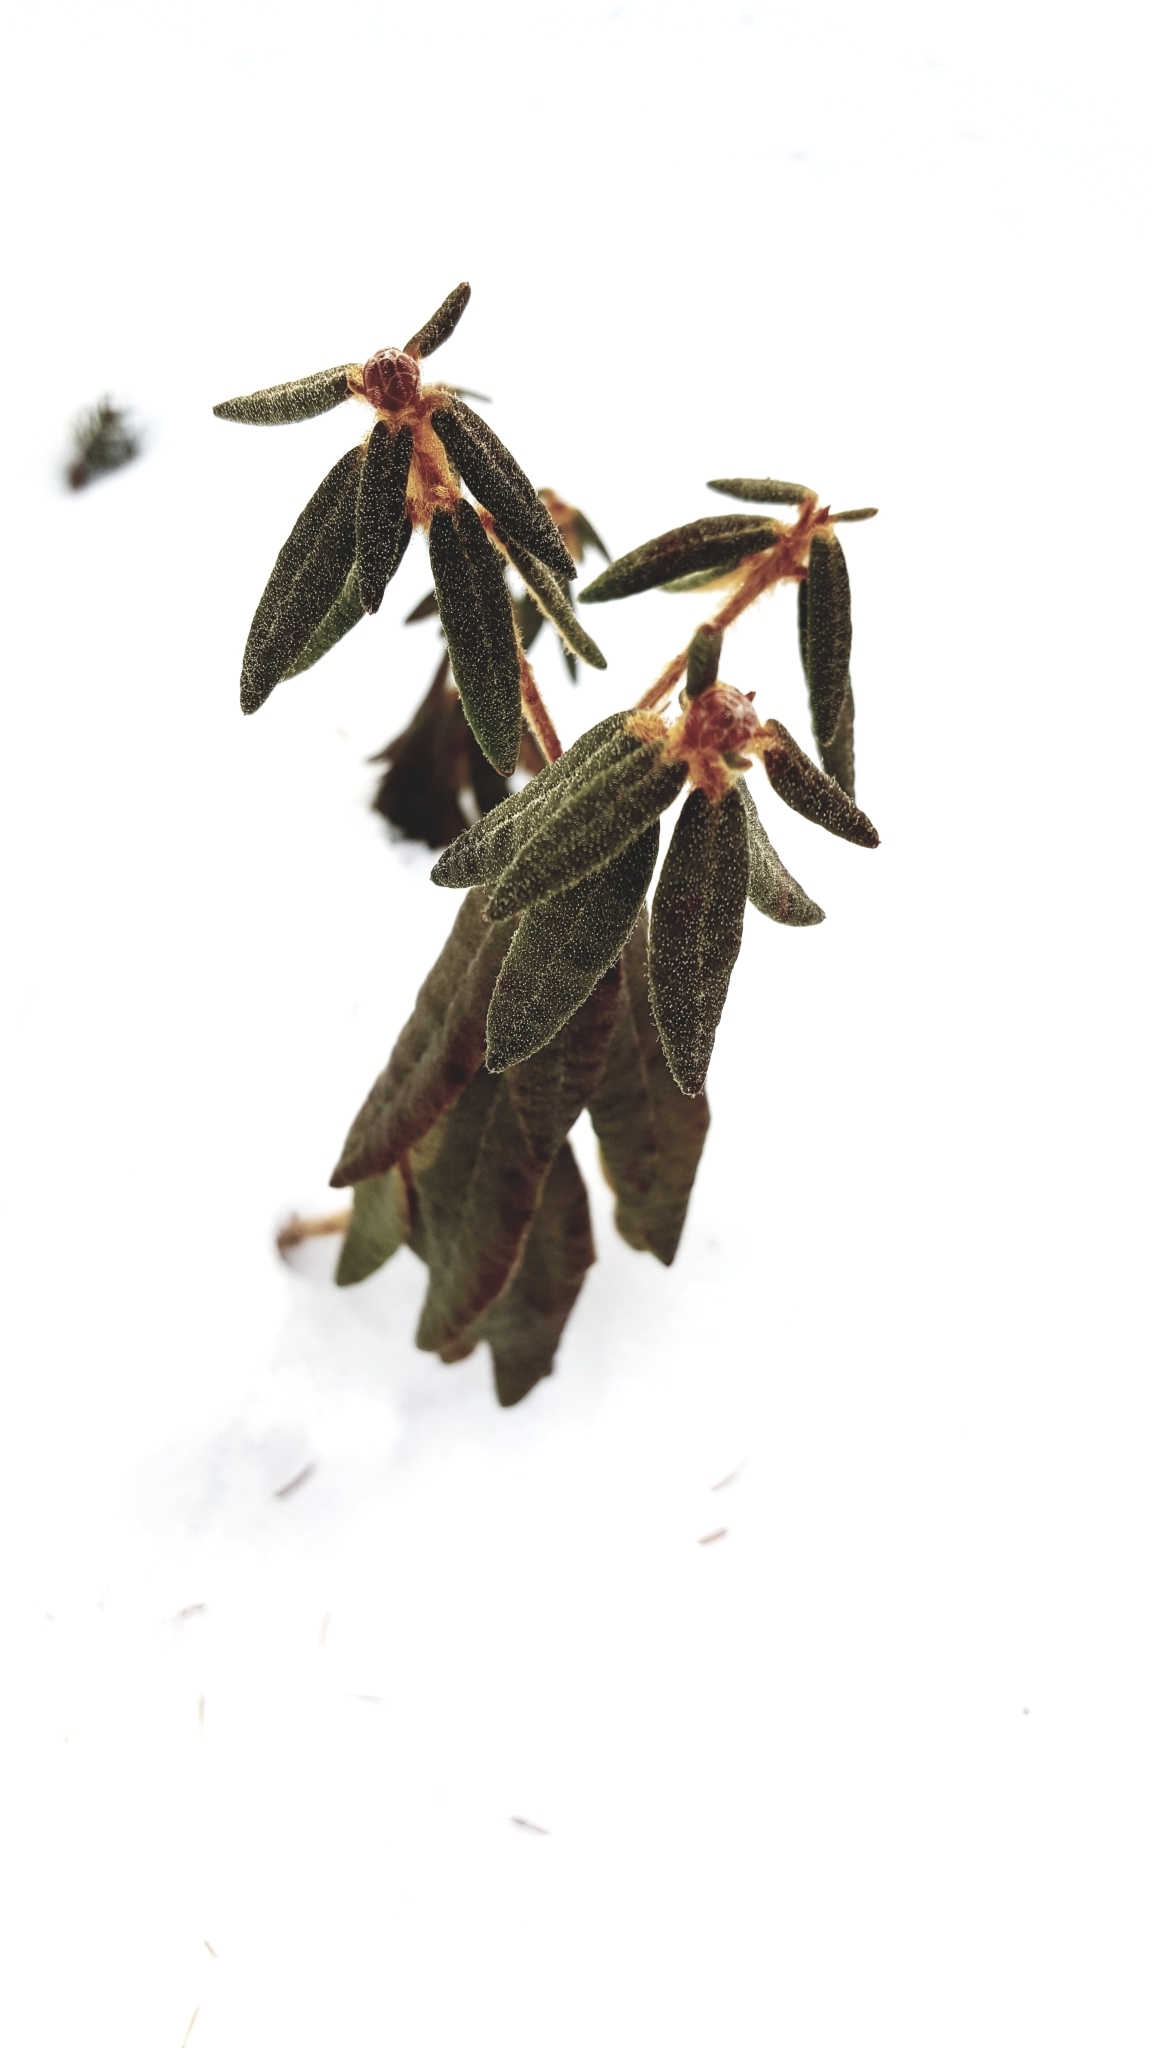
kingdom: Plantae
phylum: Tracheophyta
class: Magnoliopsida
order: Ericales
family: Ericaceae
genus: Rhododendron
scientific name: Rhododendron groenlandicum
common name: Bog labrador tea
